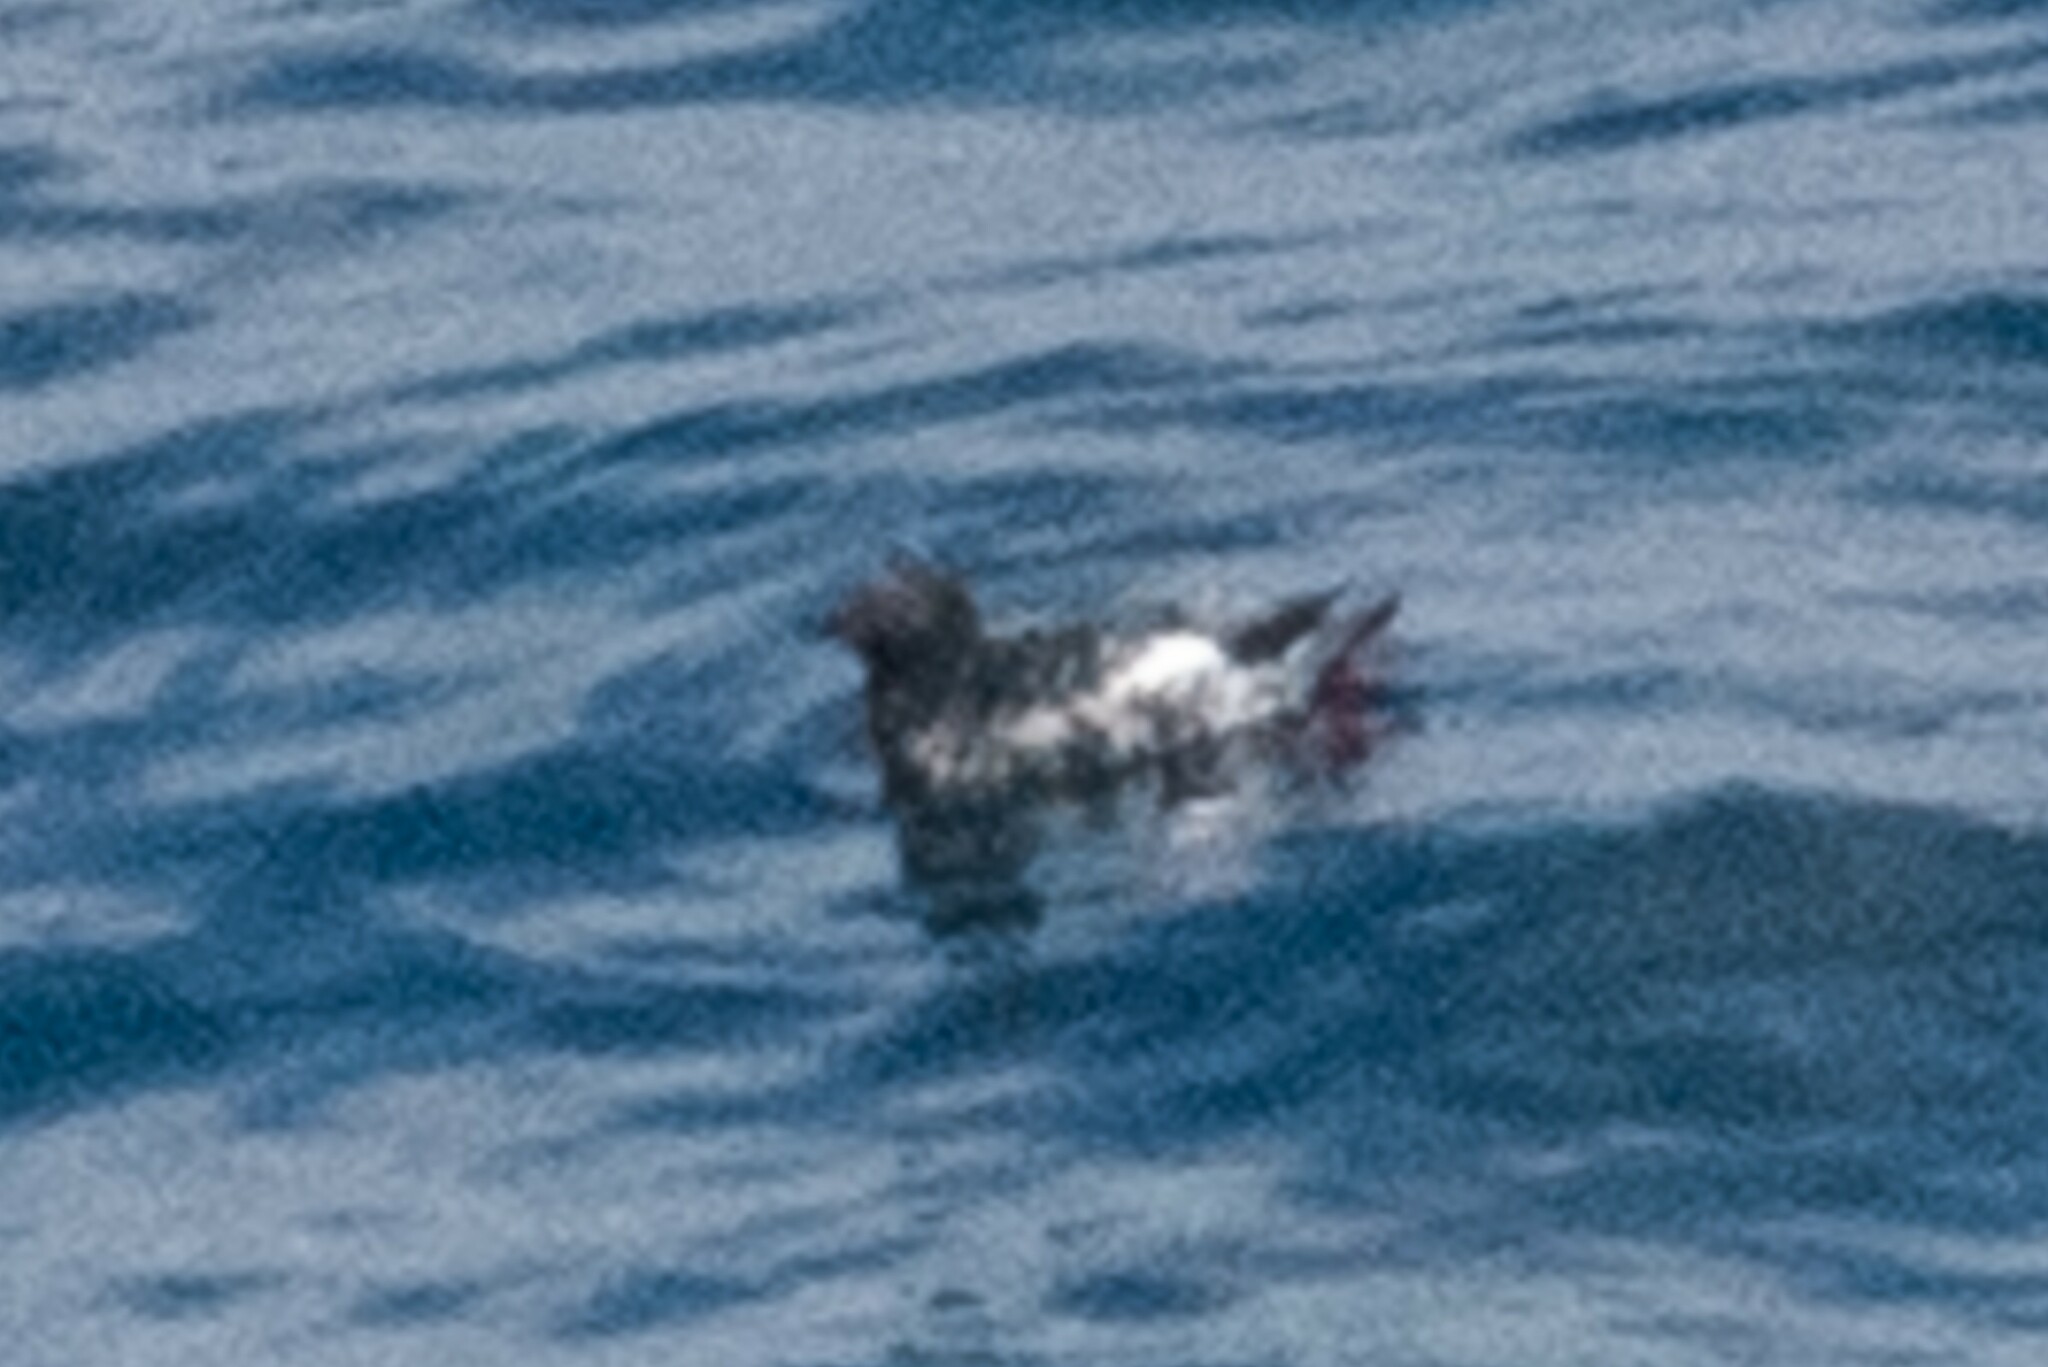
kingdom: Animalia
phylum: Chordata
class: Aves
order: Charadriiformes
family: Alcidae
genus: Cepphus
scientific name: Cepphus columba
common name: Pigeon guillemot
